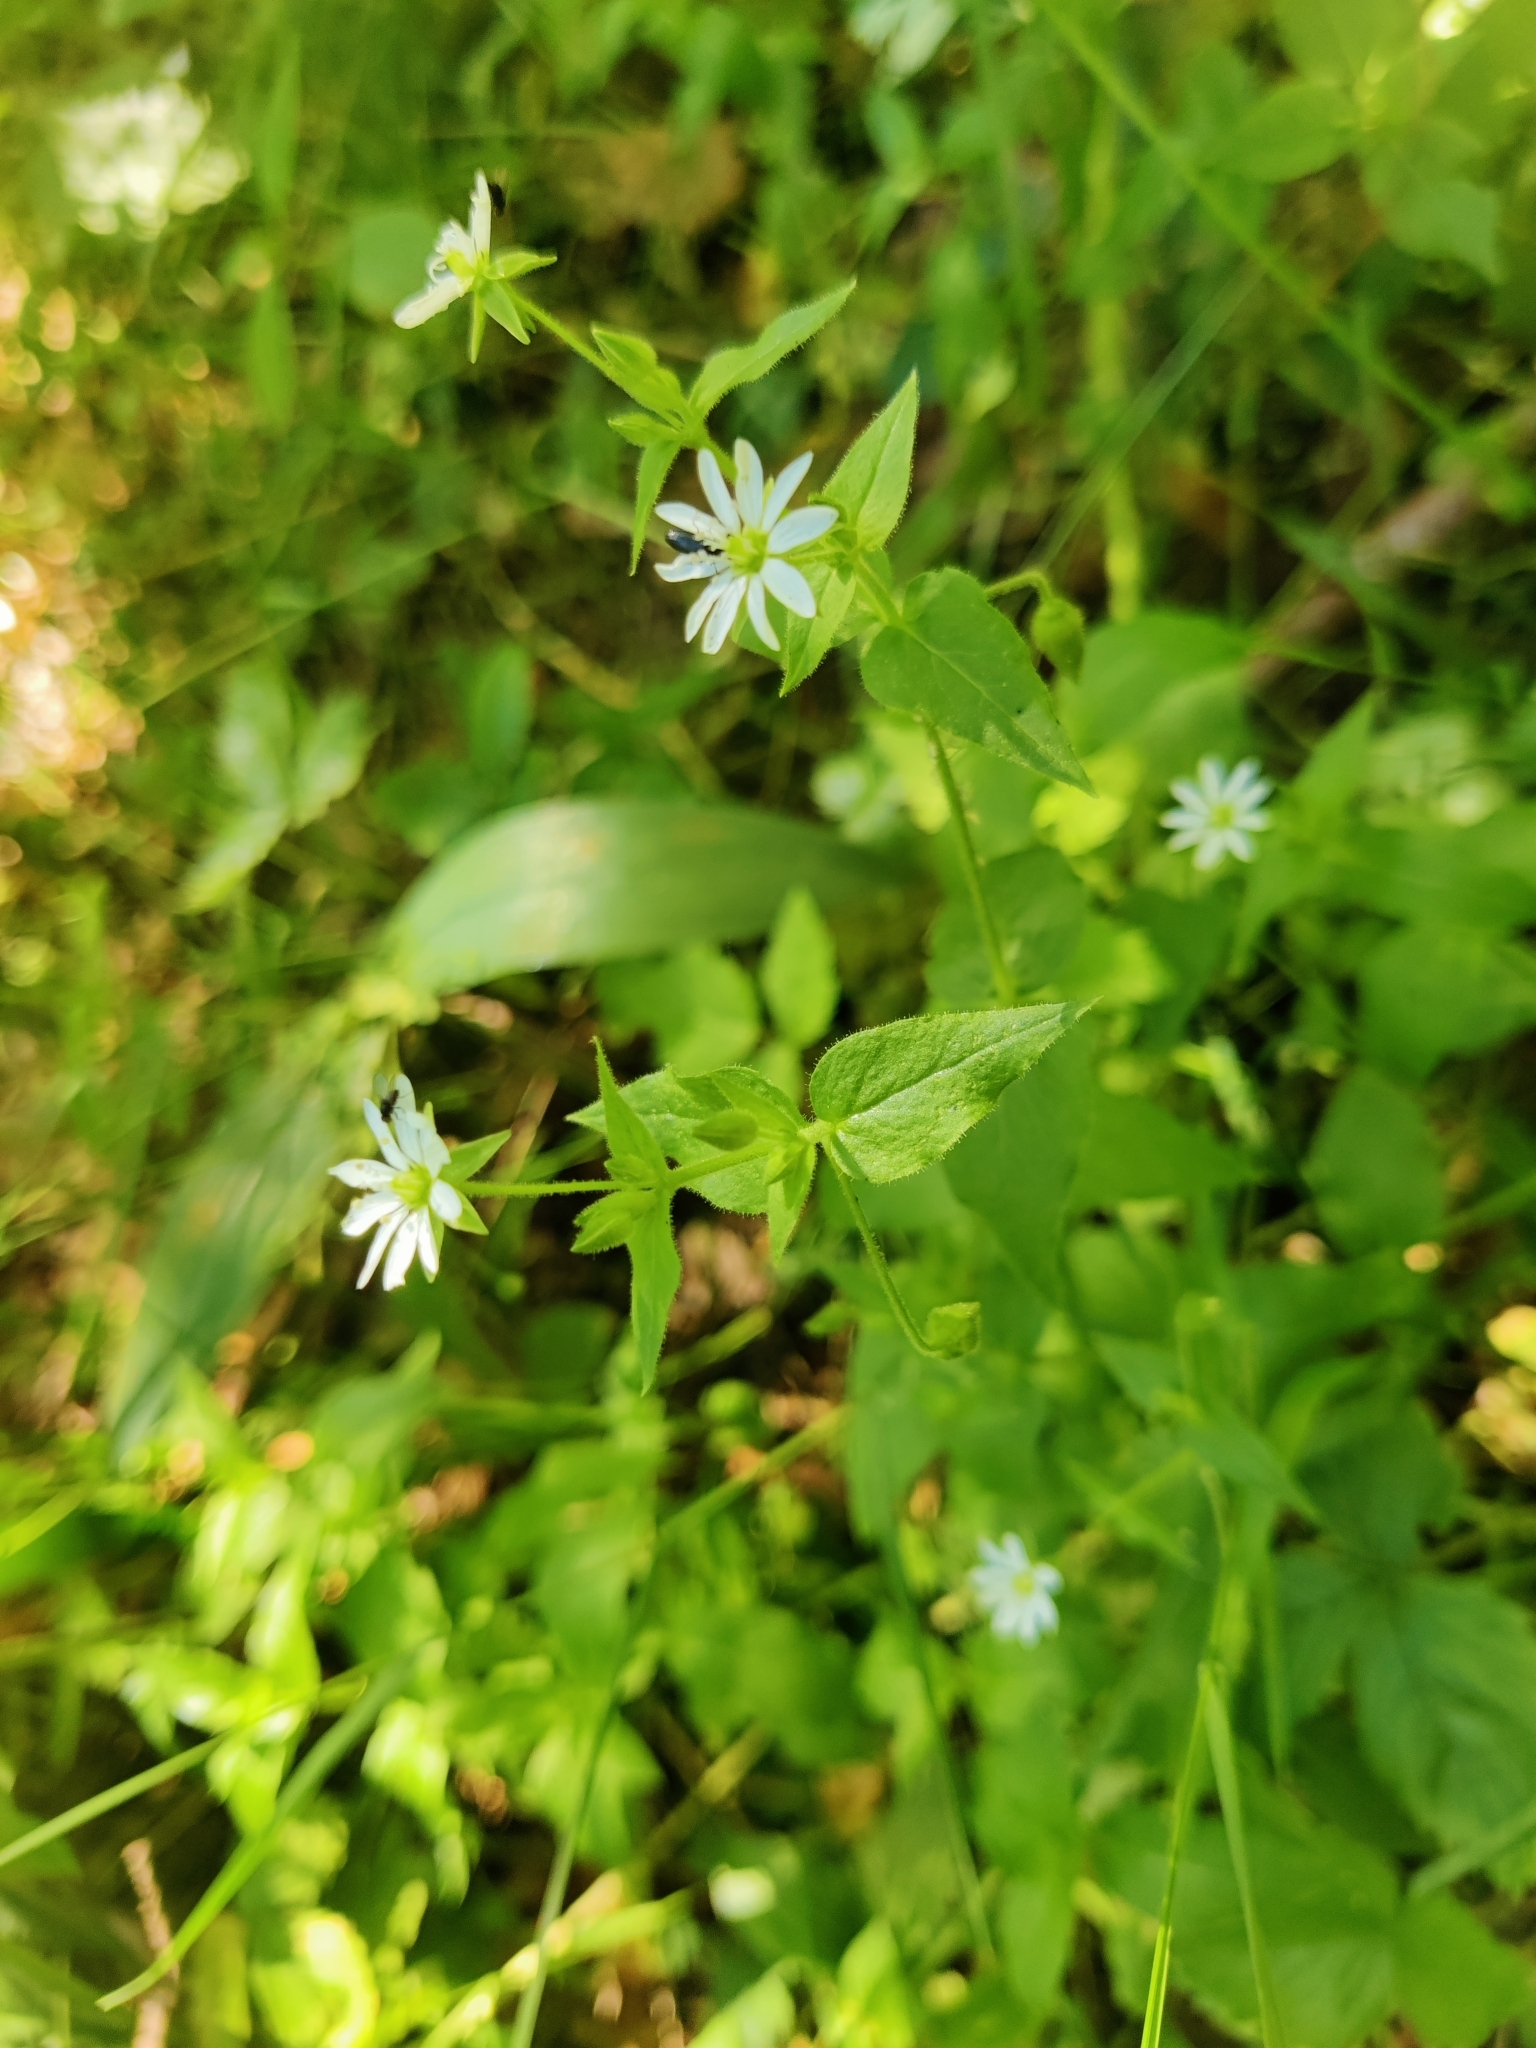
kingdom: Plantae
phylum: Tracheophyta
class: Magnoliopsida
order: Caryophyllales
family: Caryophyllaceae
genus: Stellaria
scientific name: Stellaria aquatica
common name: Water chickweed
